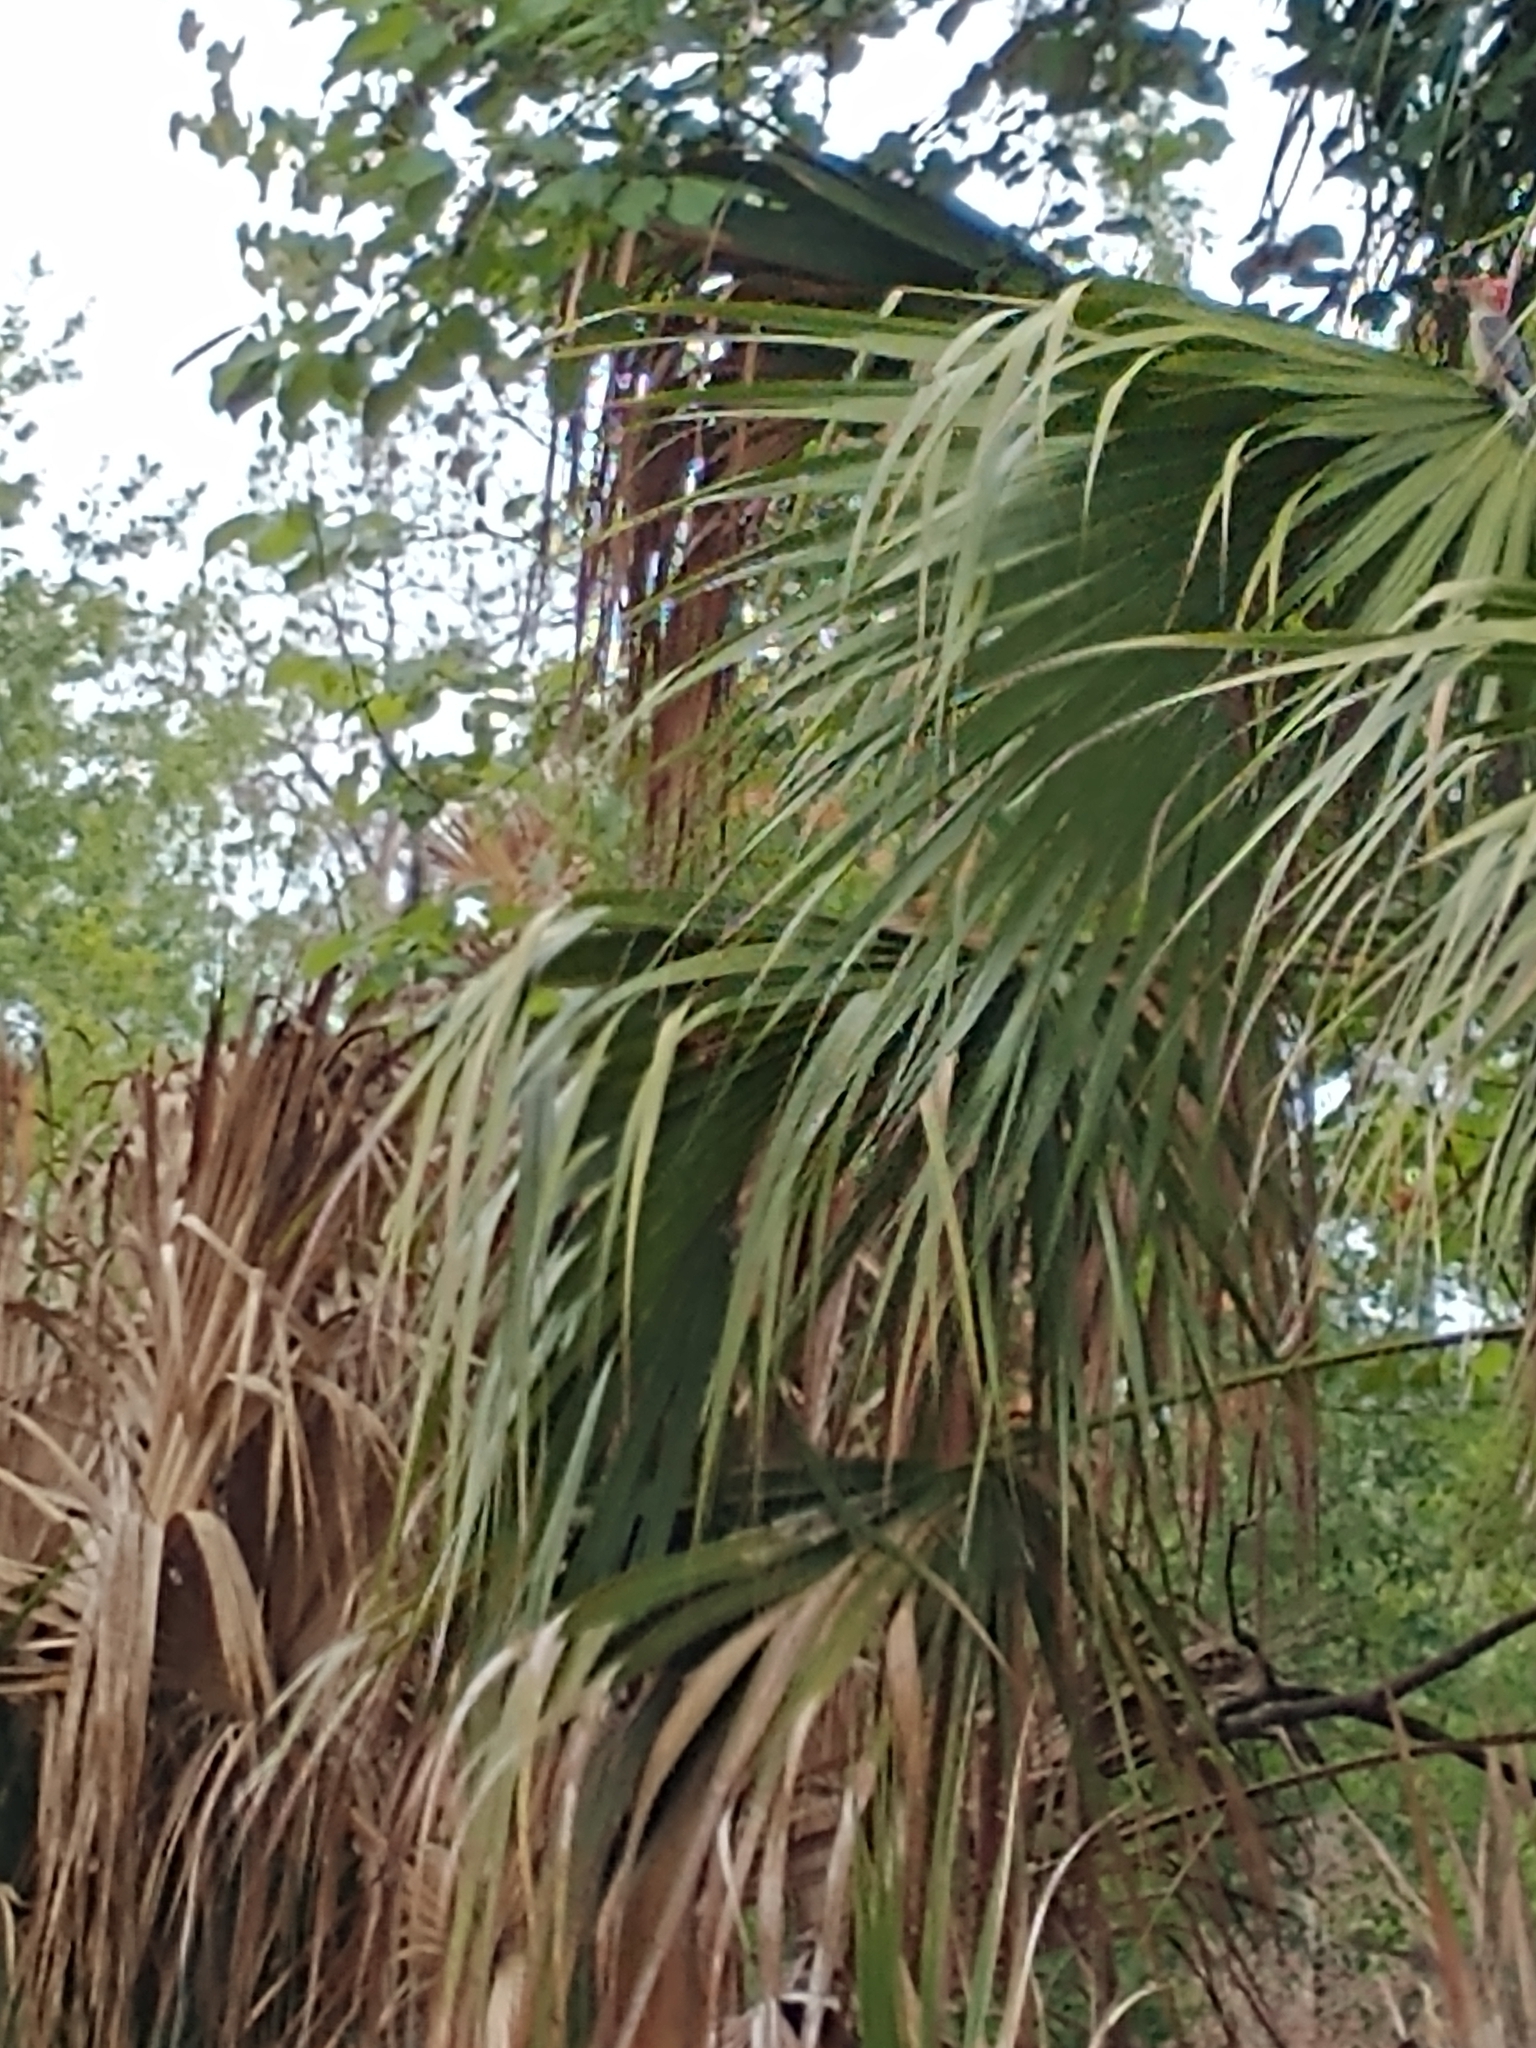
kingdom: Animalia
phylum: Chordata
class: Aves
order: Piciformes
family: Picidae
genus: Melanerpes
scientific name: Melanerpes carolinus
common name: Red-bellied woodpecker
